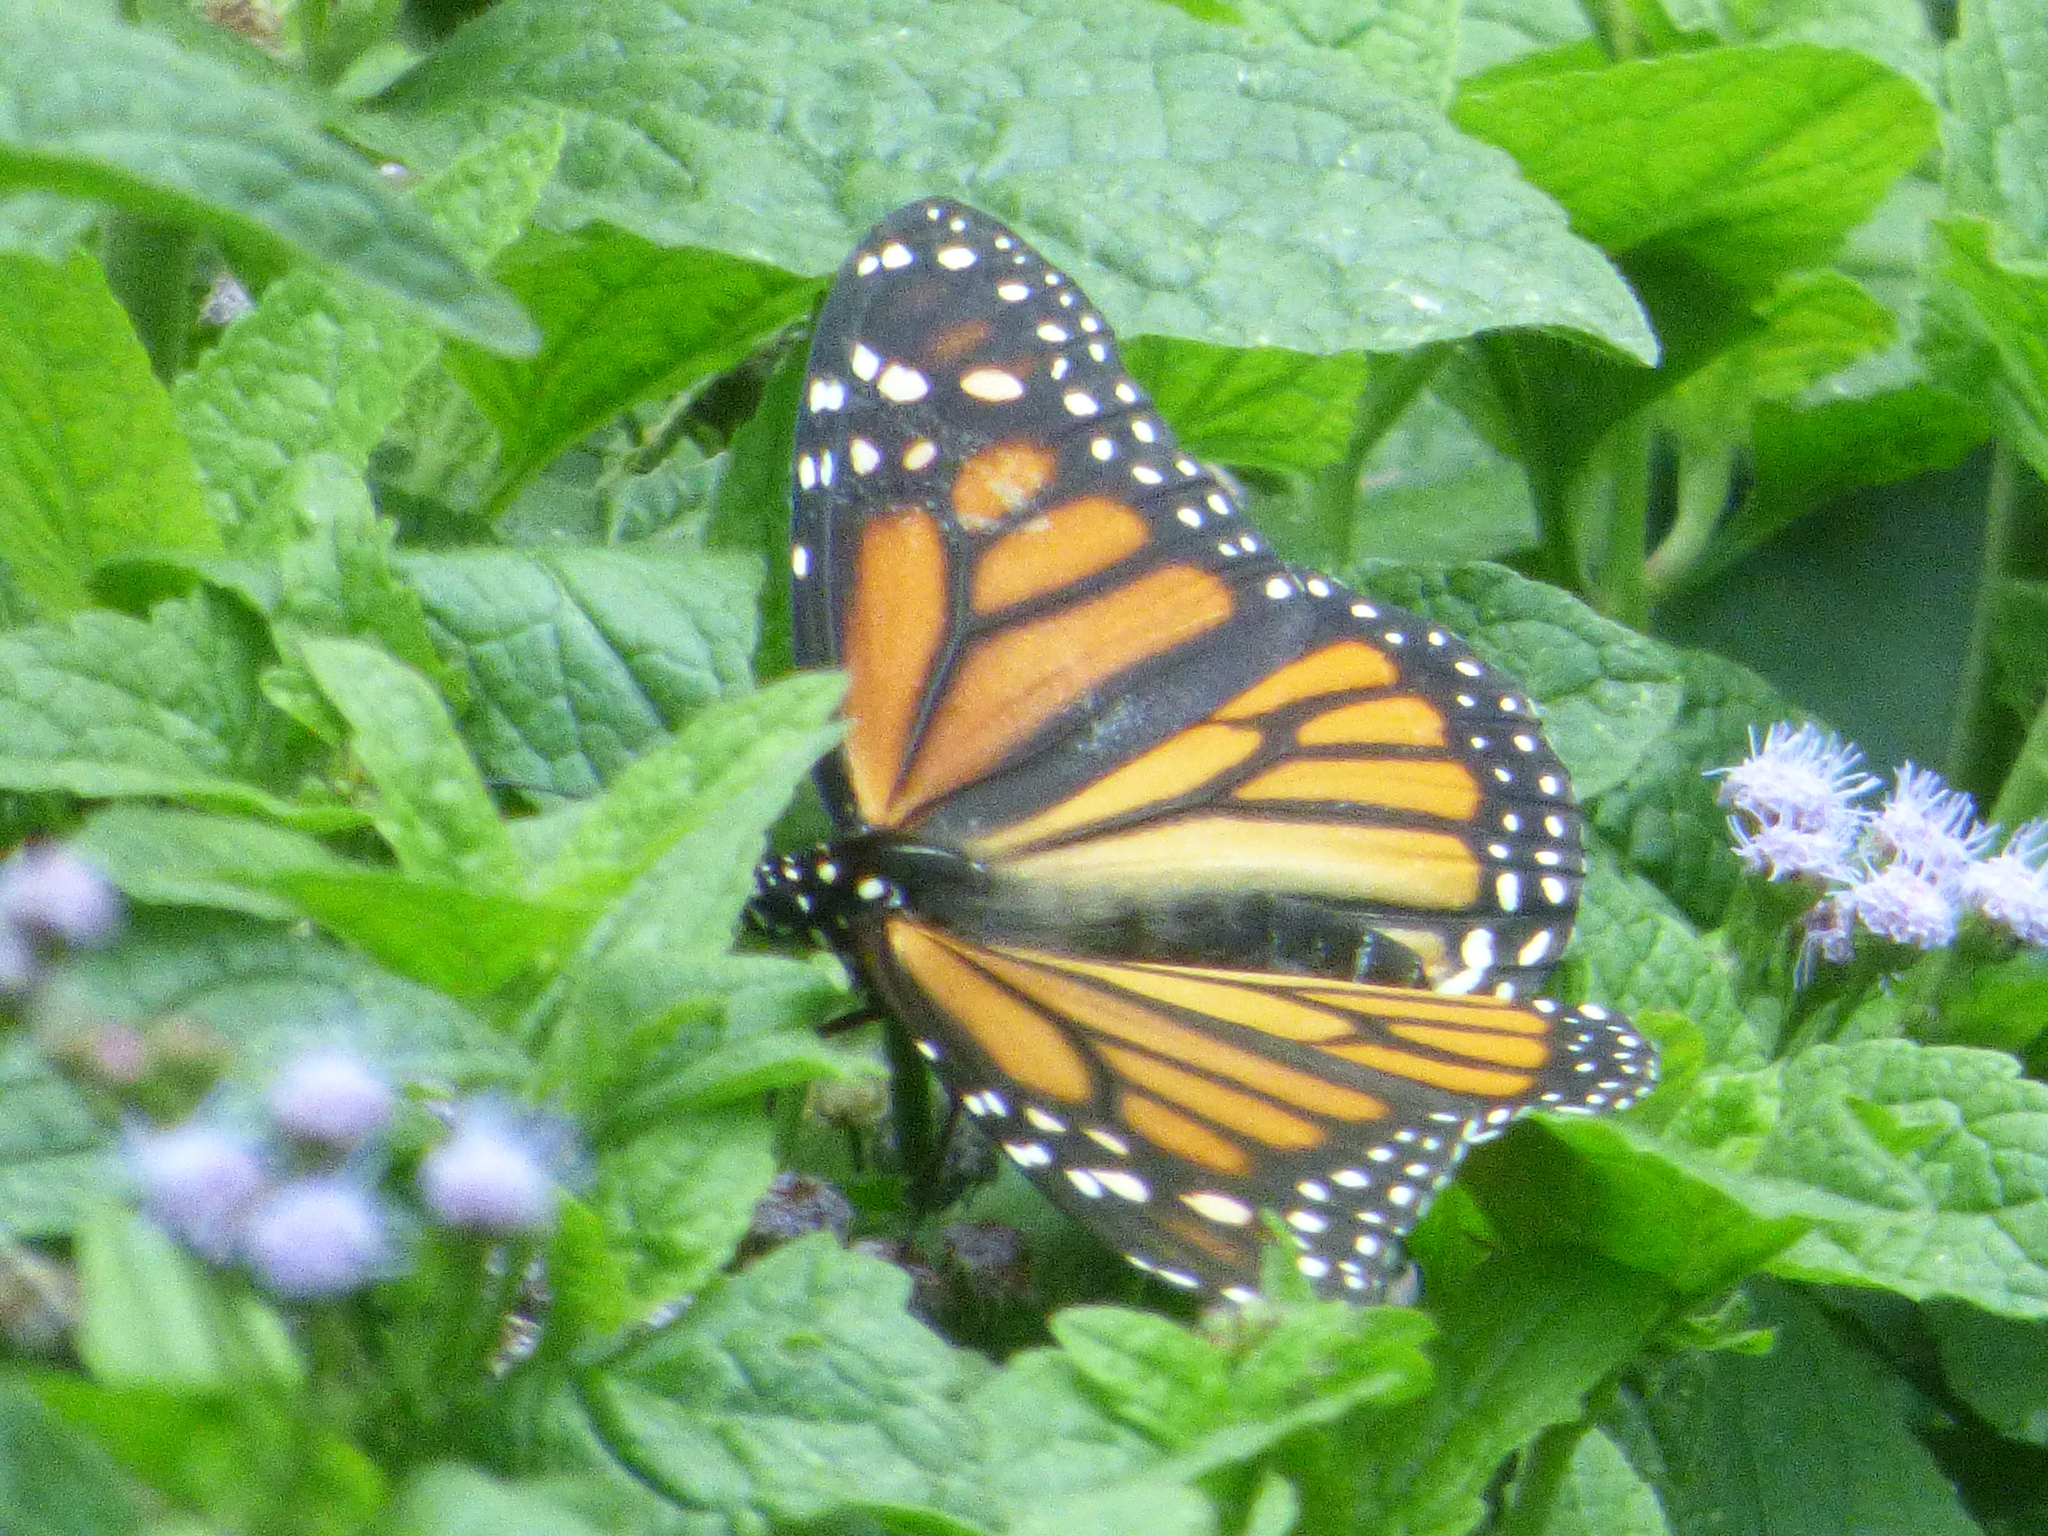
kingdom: Animalia
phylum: Arthropoda
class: Insecta
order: Lepidoptera
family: Nymphalidae
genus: Danaus
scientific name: Danaus plexippus
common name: Monarch
